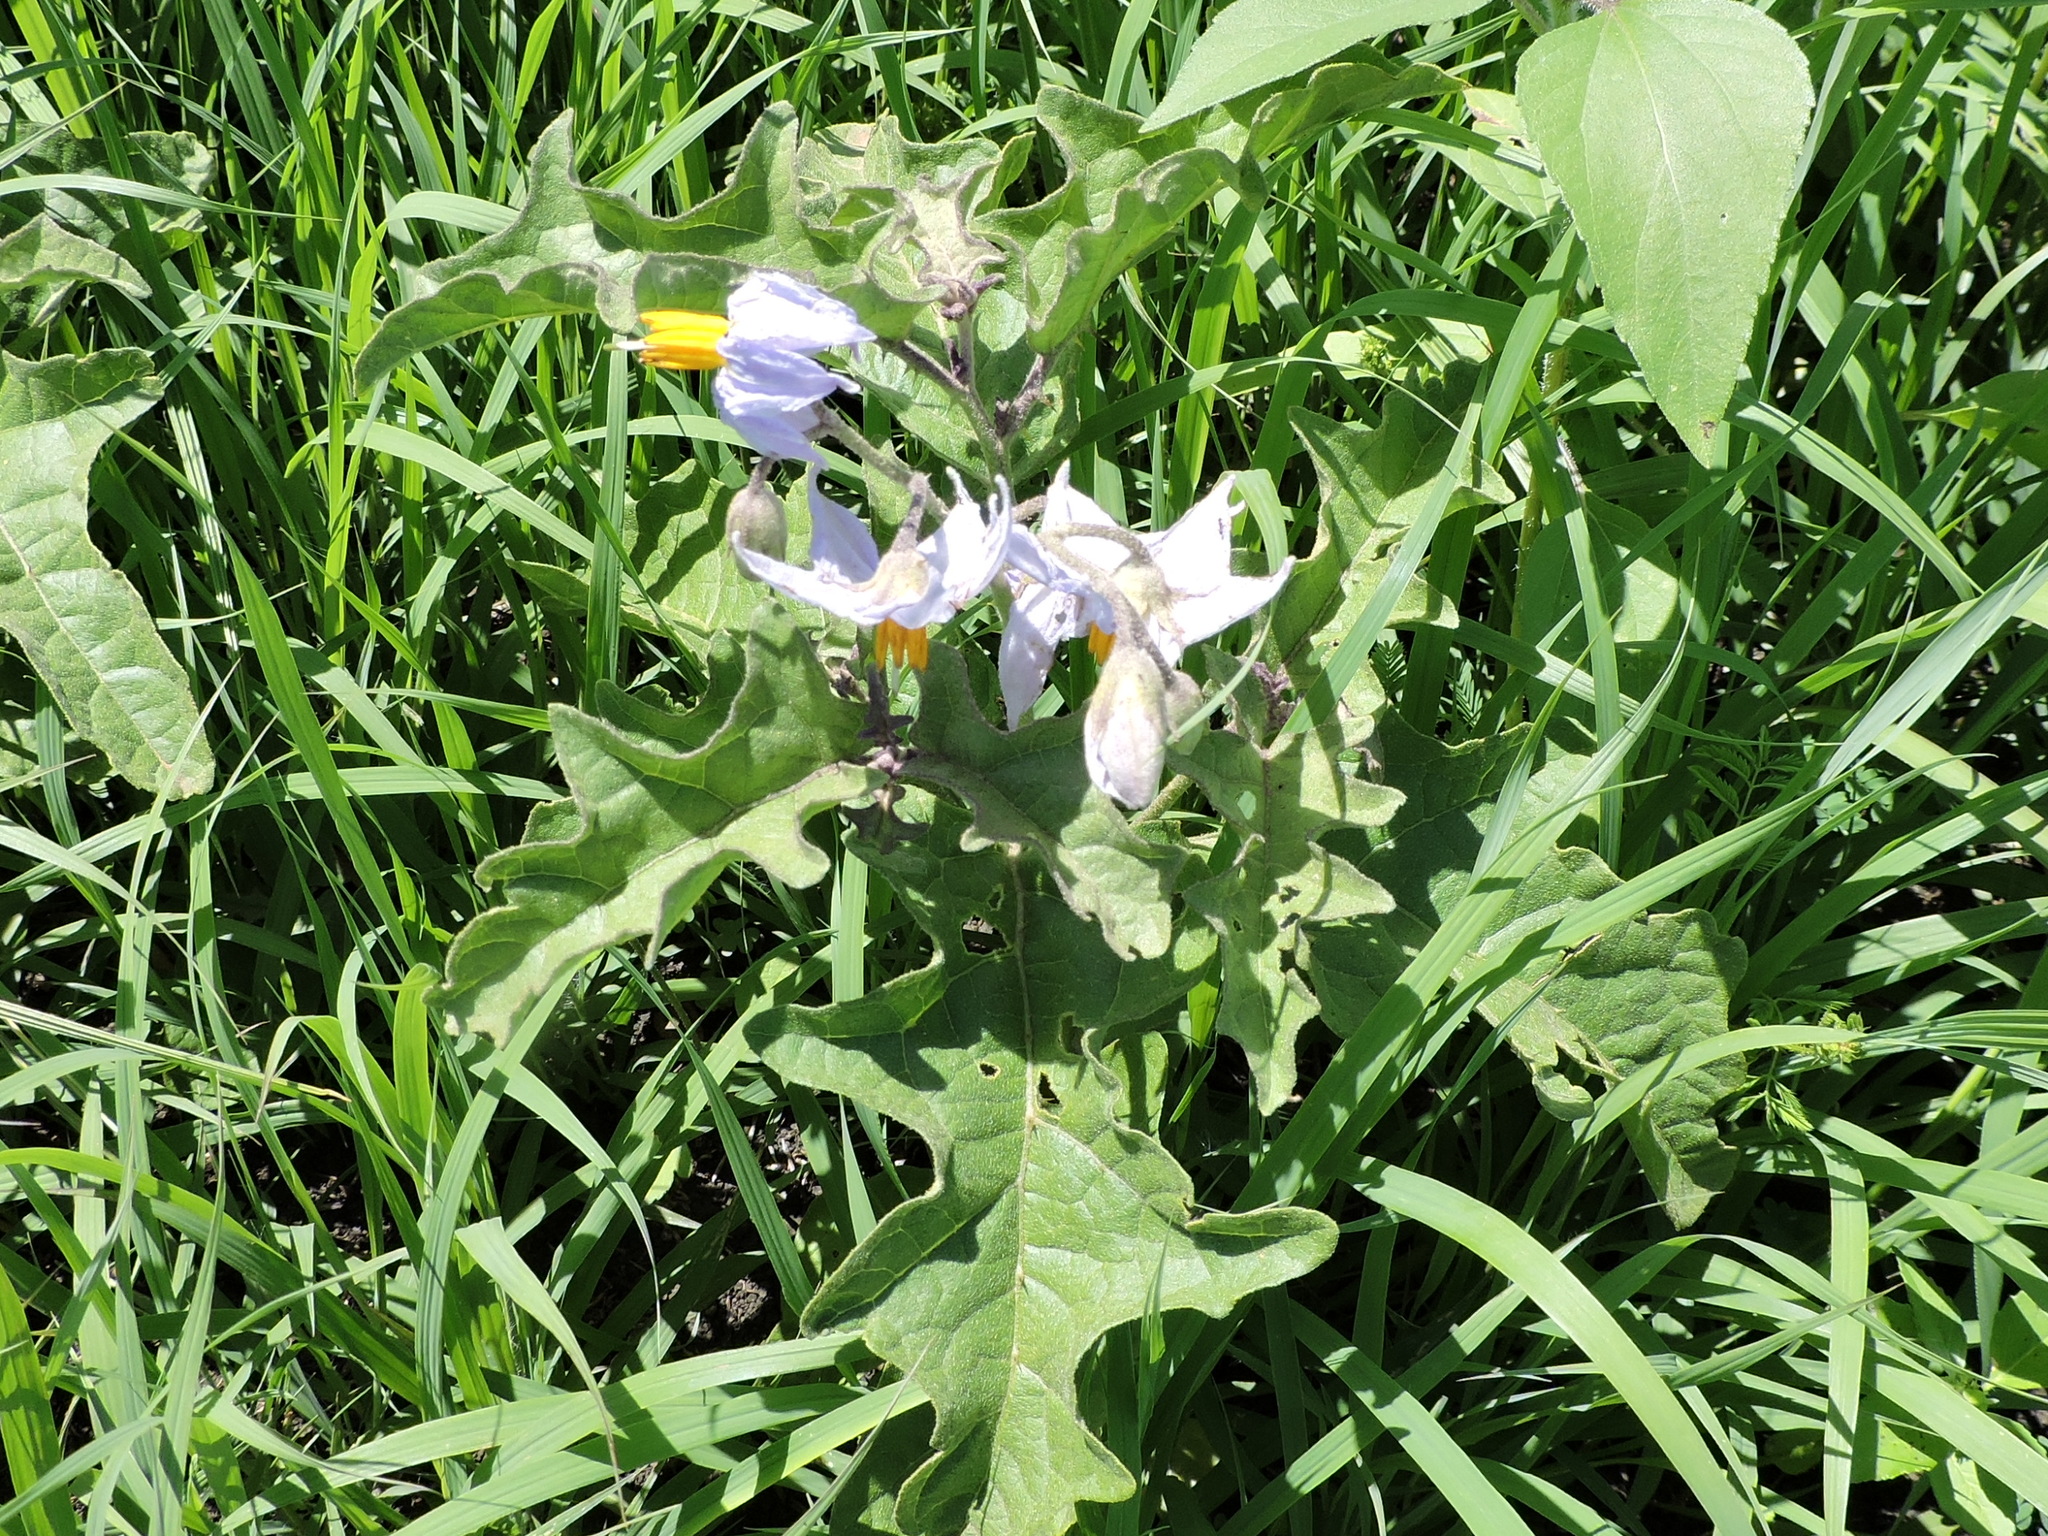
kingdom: Plantae
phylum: Tracheophyta
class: Magnoliopsida
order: Solanales
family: Solanaceae
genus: Solanum
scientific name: Solanum dimidiatum
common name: Carolina horse-nettle
